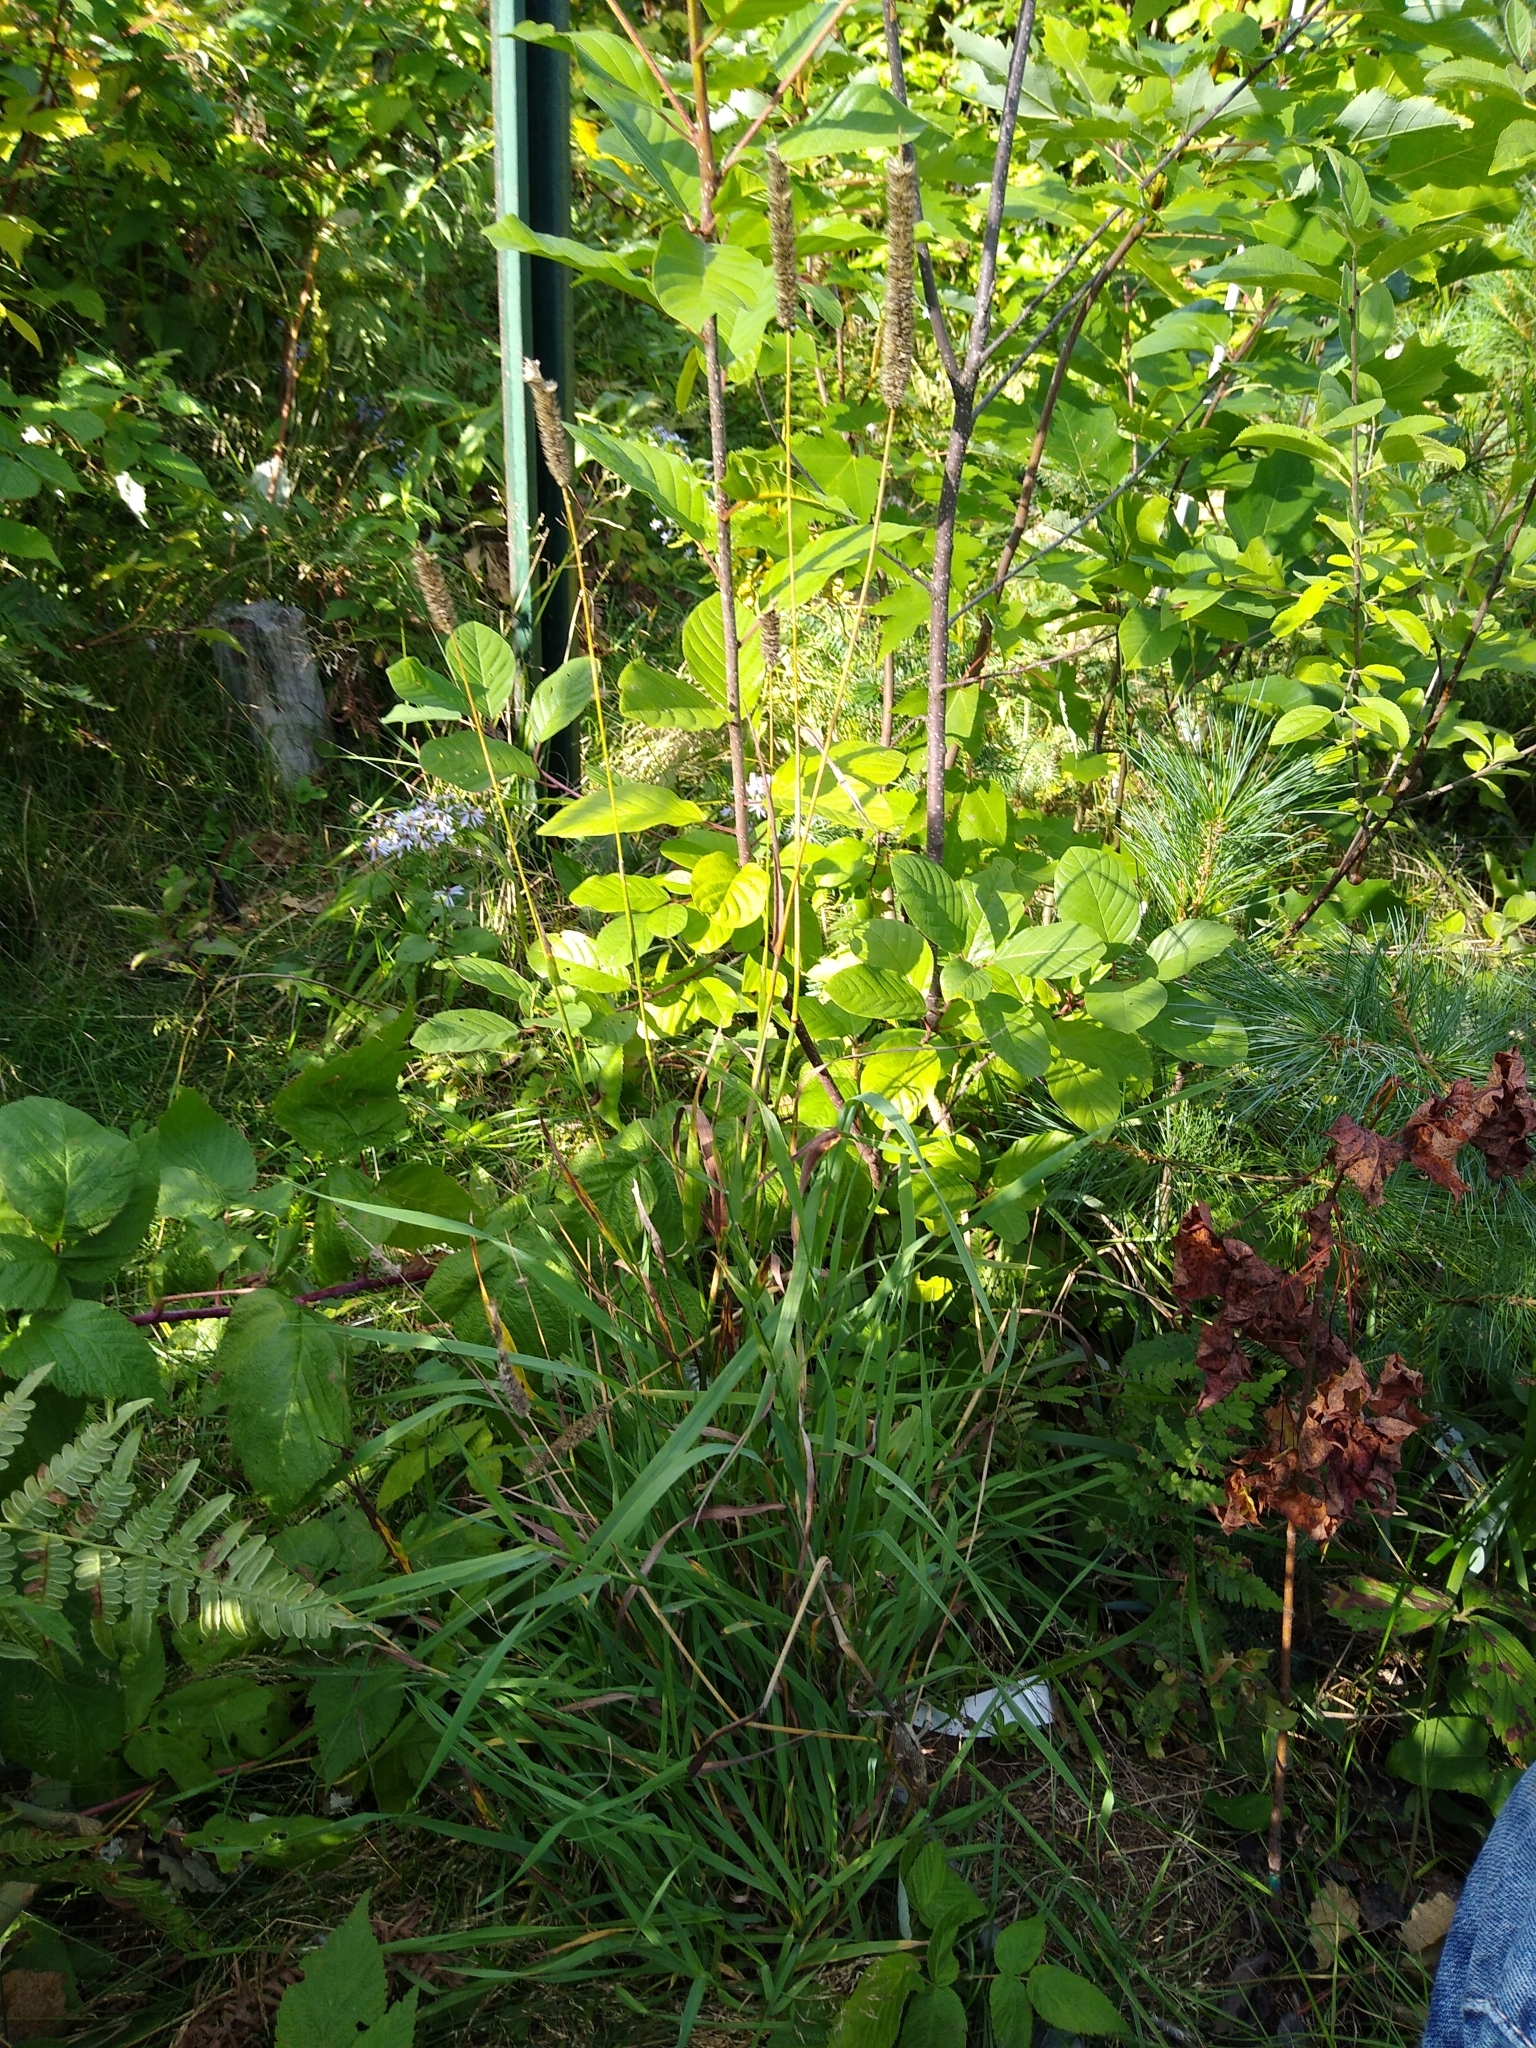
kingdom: Plantae
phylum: Tracheophyta
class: Liliopsida
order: Poales
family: Poaceae
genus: Phleum
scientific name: Phleum pratense
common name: Timothy grass
